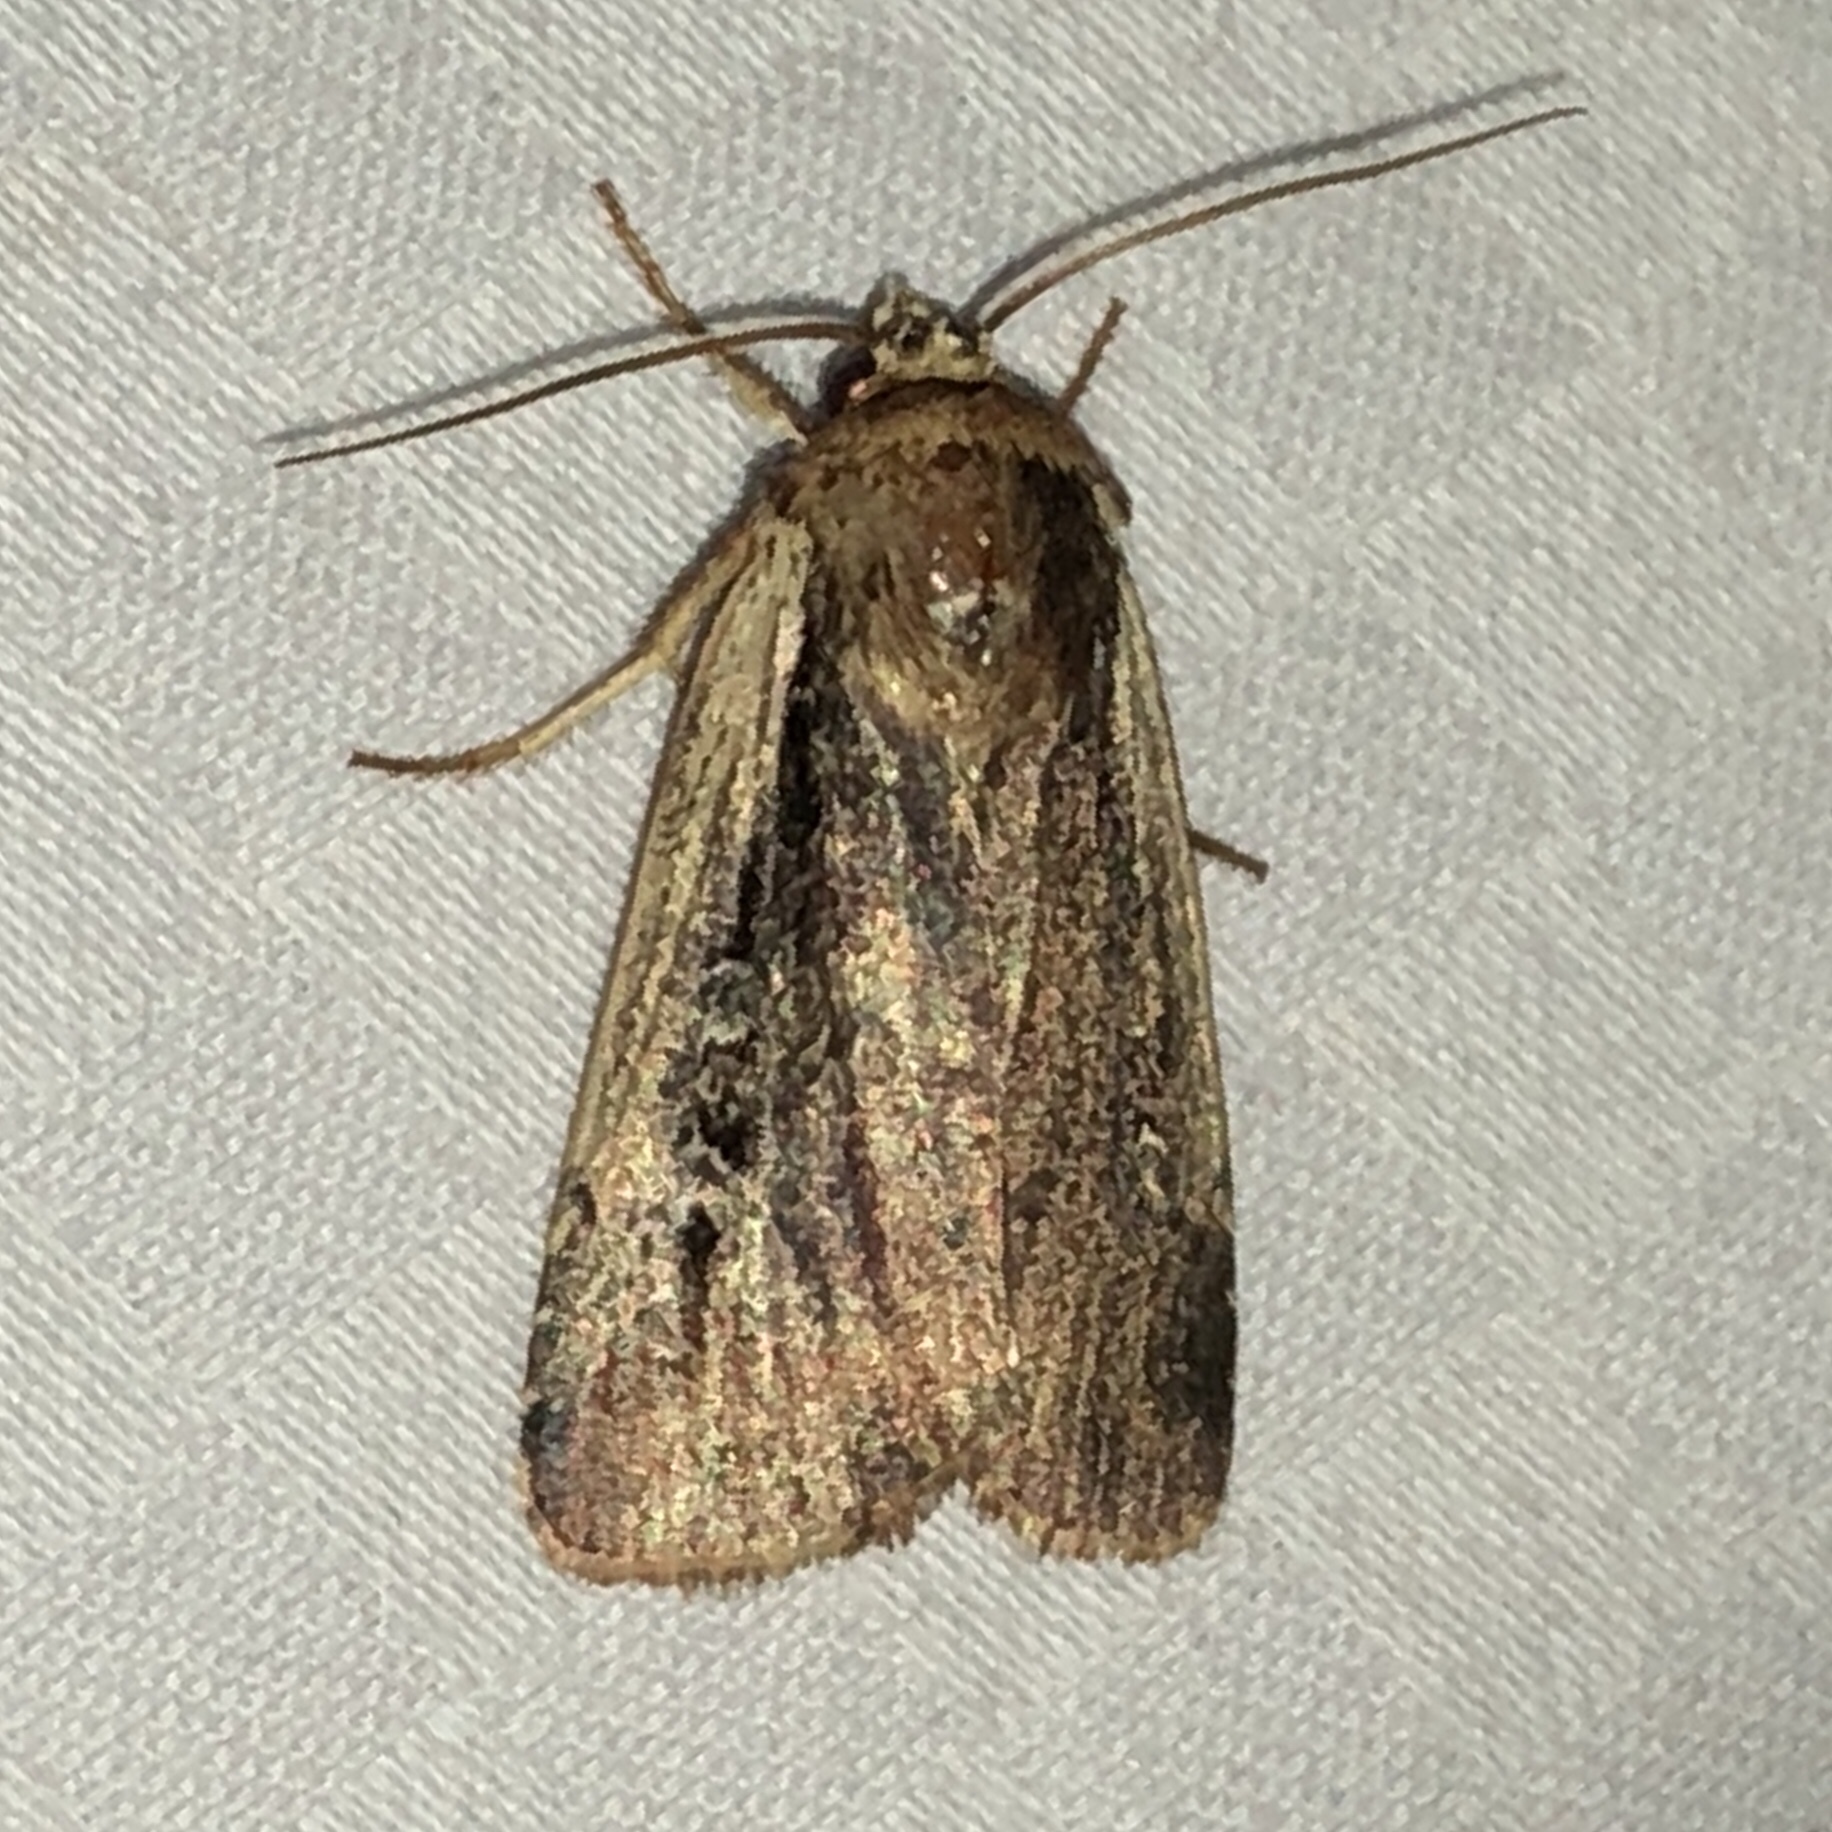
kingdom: Animalia
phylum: Arthropoda
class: Insecta
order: Lepidoptera
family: Noctuidae
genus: Ochropleura
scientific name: Ochropleura implecta
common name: Flame-shouldered dart
